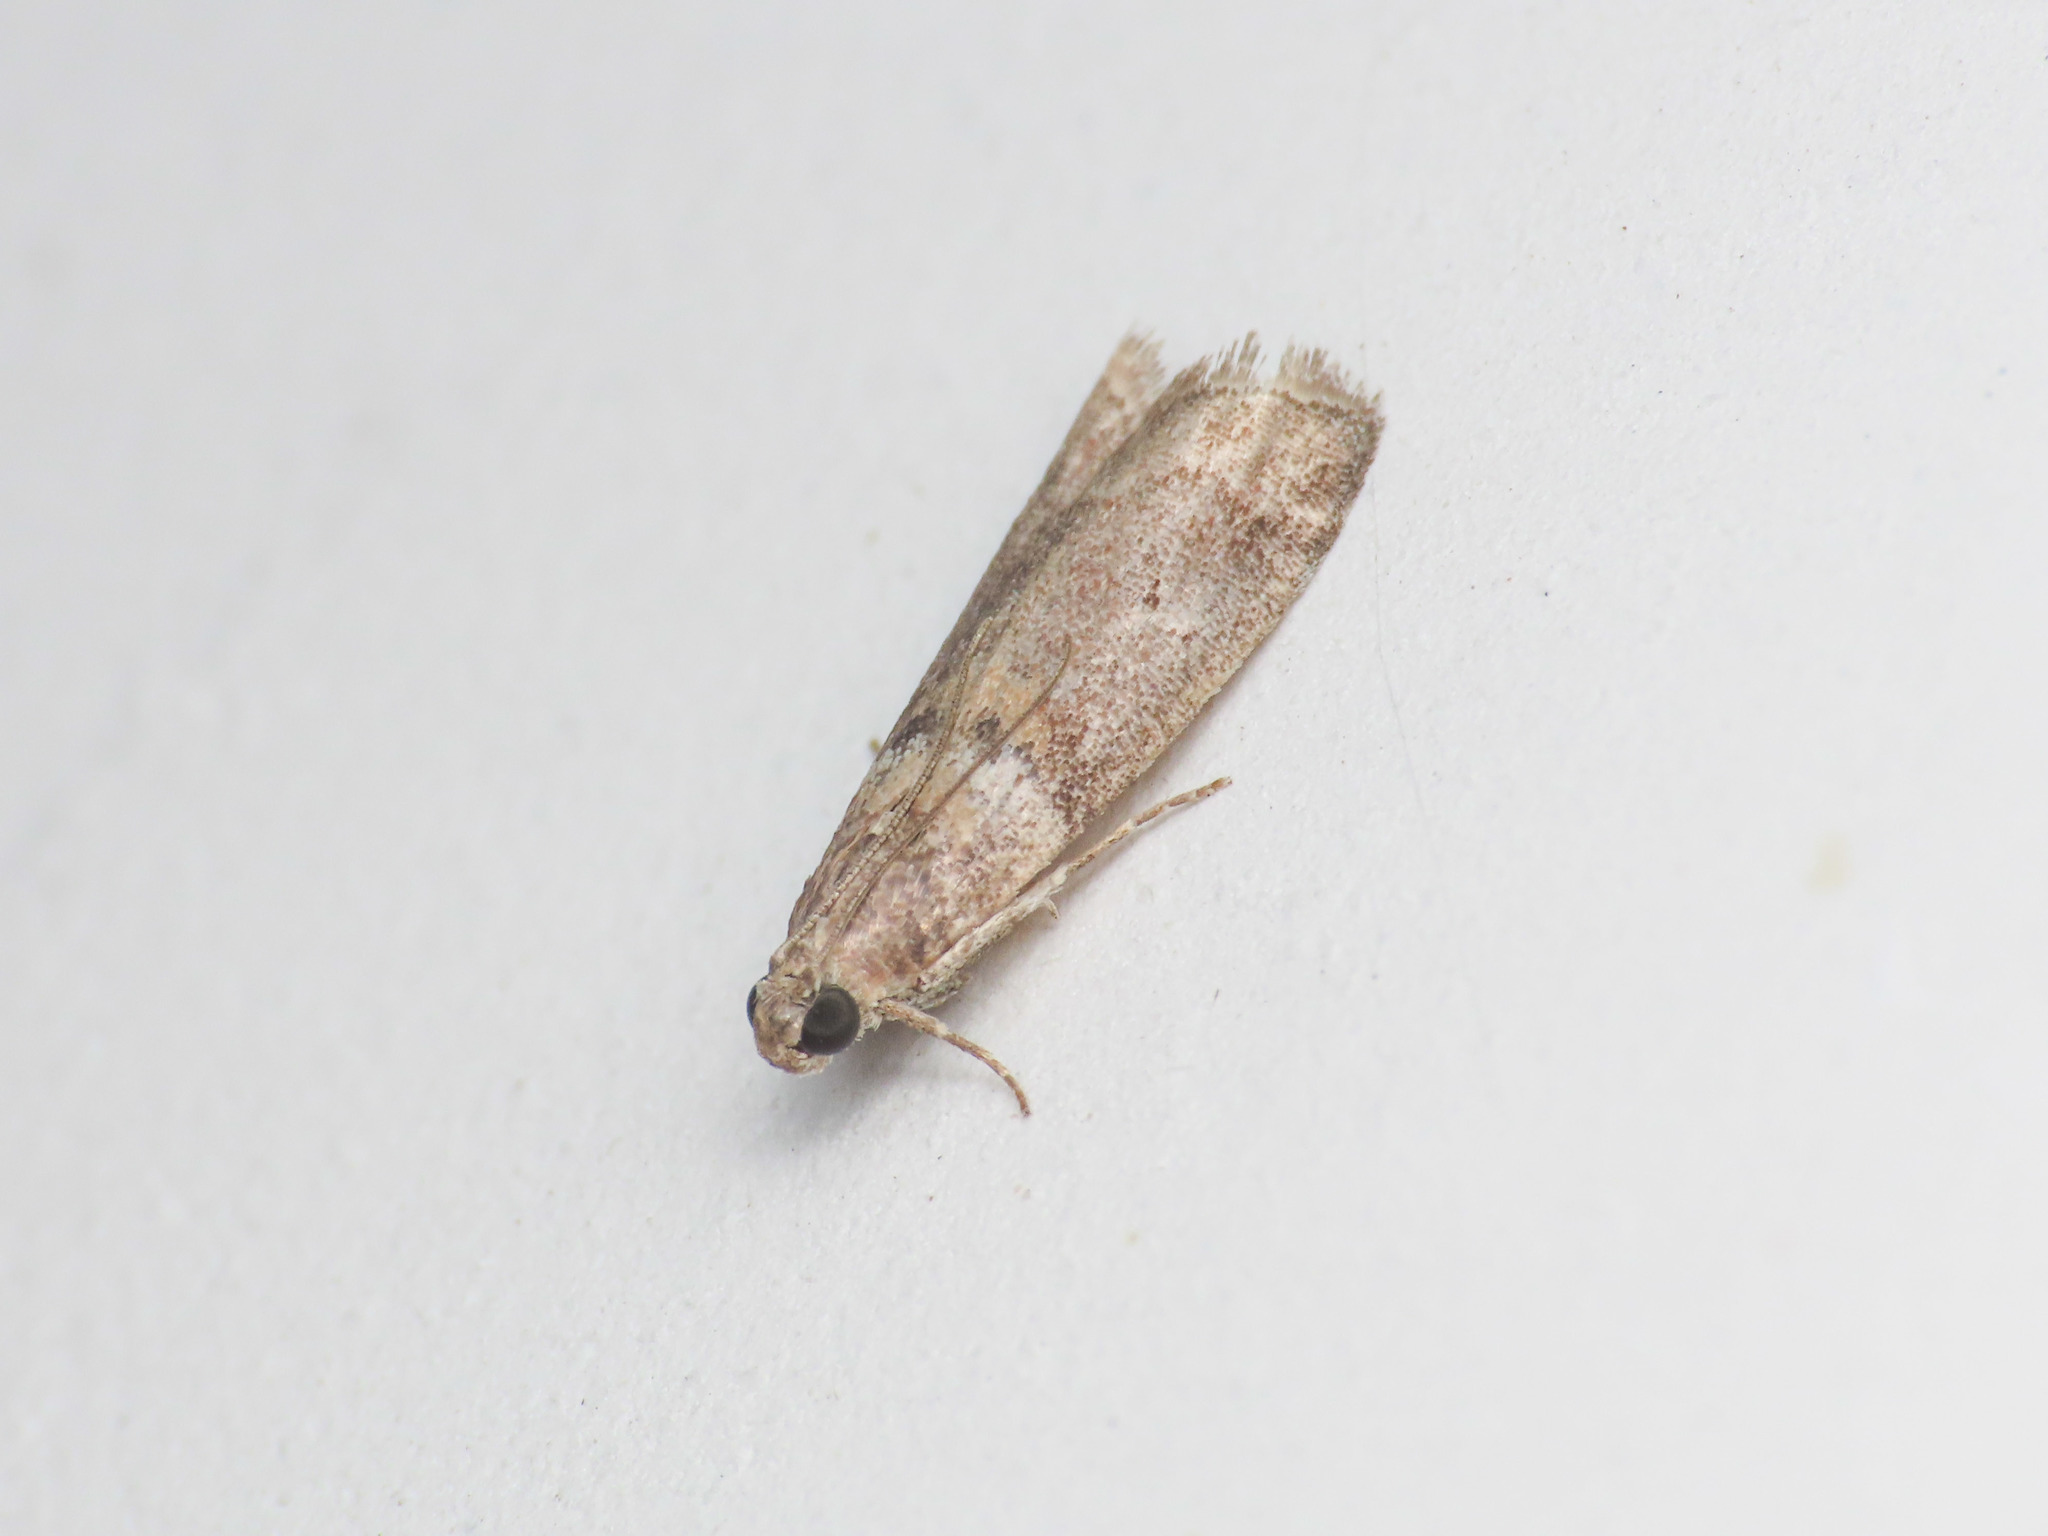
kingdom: Animalia
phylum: Arthropoda
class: Insecta
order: Lepidoptera
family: Pyralidae
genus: Acrobasis
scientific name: Acrobasis consociella
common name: Broad-barred knot-horn
